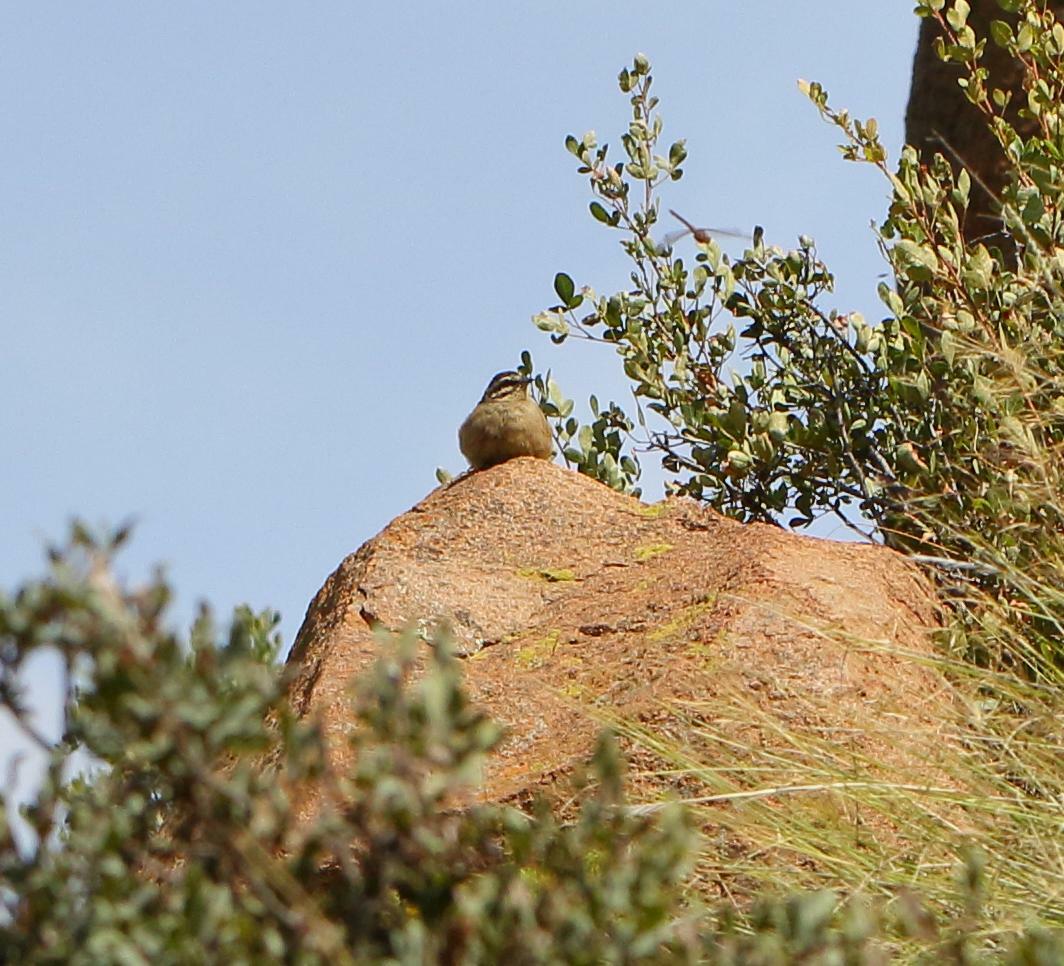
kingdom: Animalia
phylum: Chordata
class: Aves
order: Passeriformes
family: Emberizidae
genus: Emberiza
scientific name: Emberiza capensis
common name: Cape bunting
